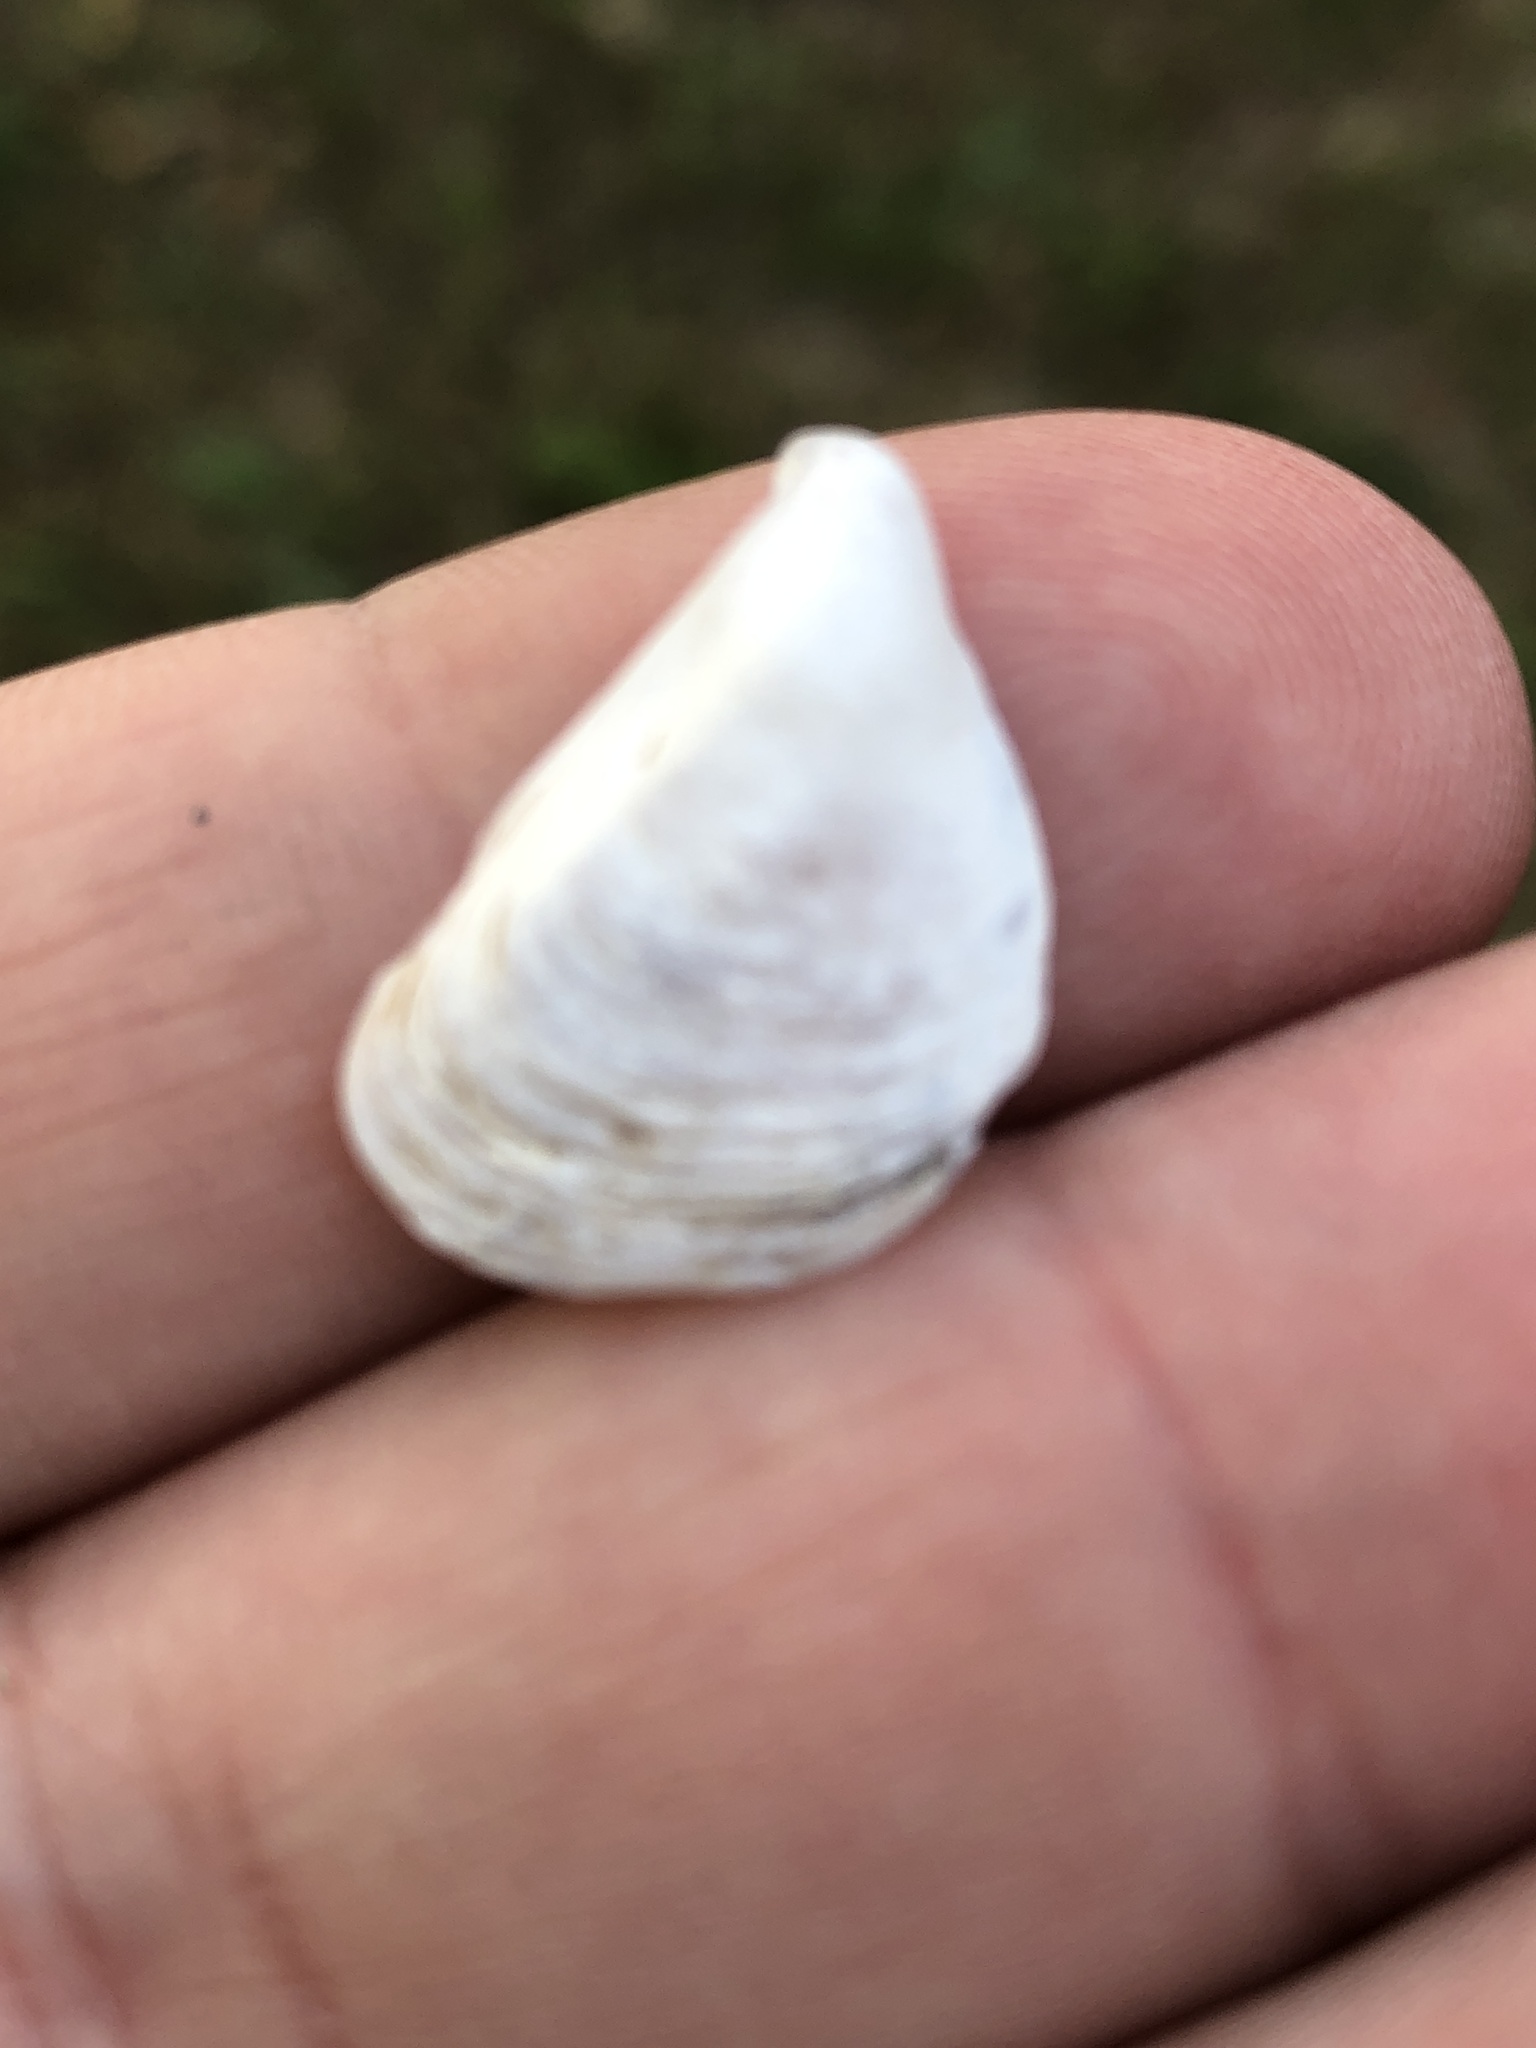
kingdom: Animalia
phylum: Mollusca
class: Bivalvia
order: Myida
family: Dreissenidae
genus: Dreissena
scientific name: Dreissena bugensis
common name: Quagga mussel
